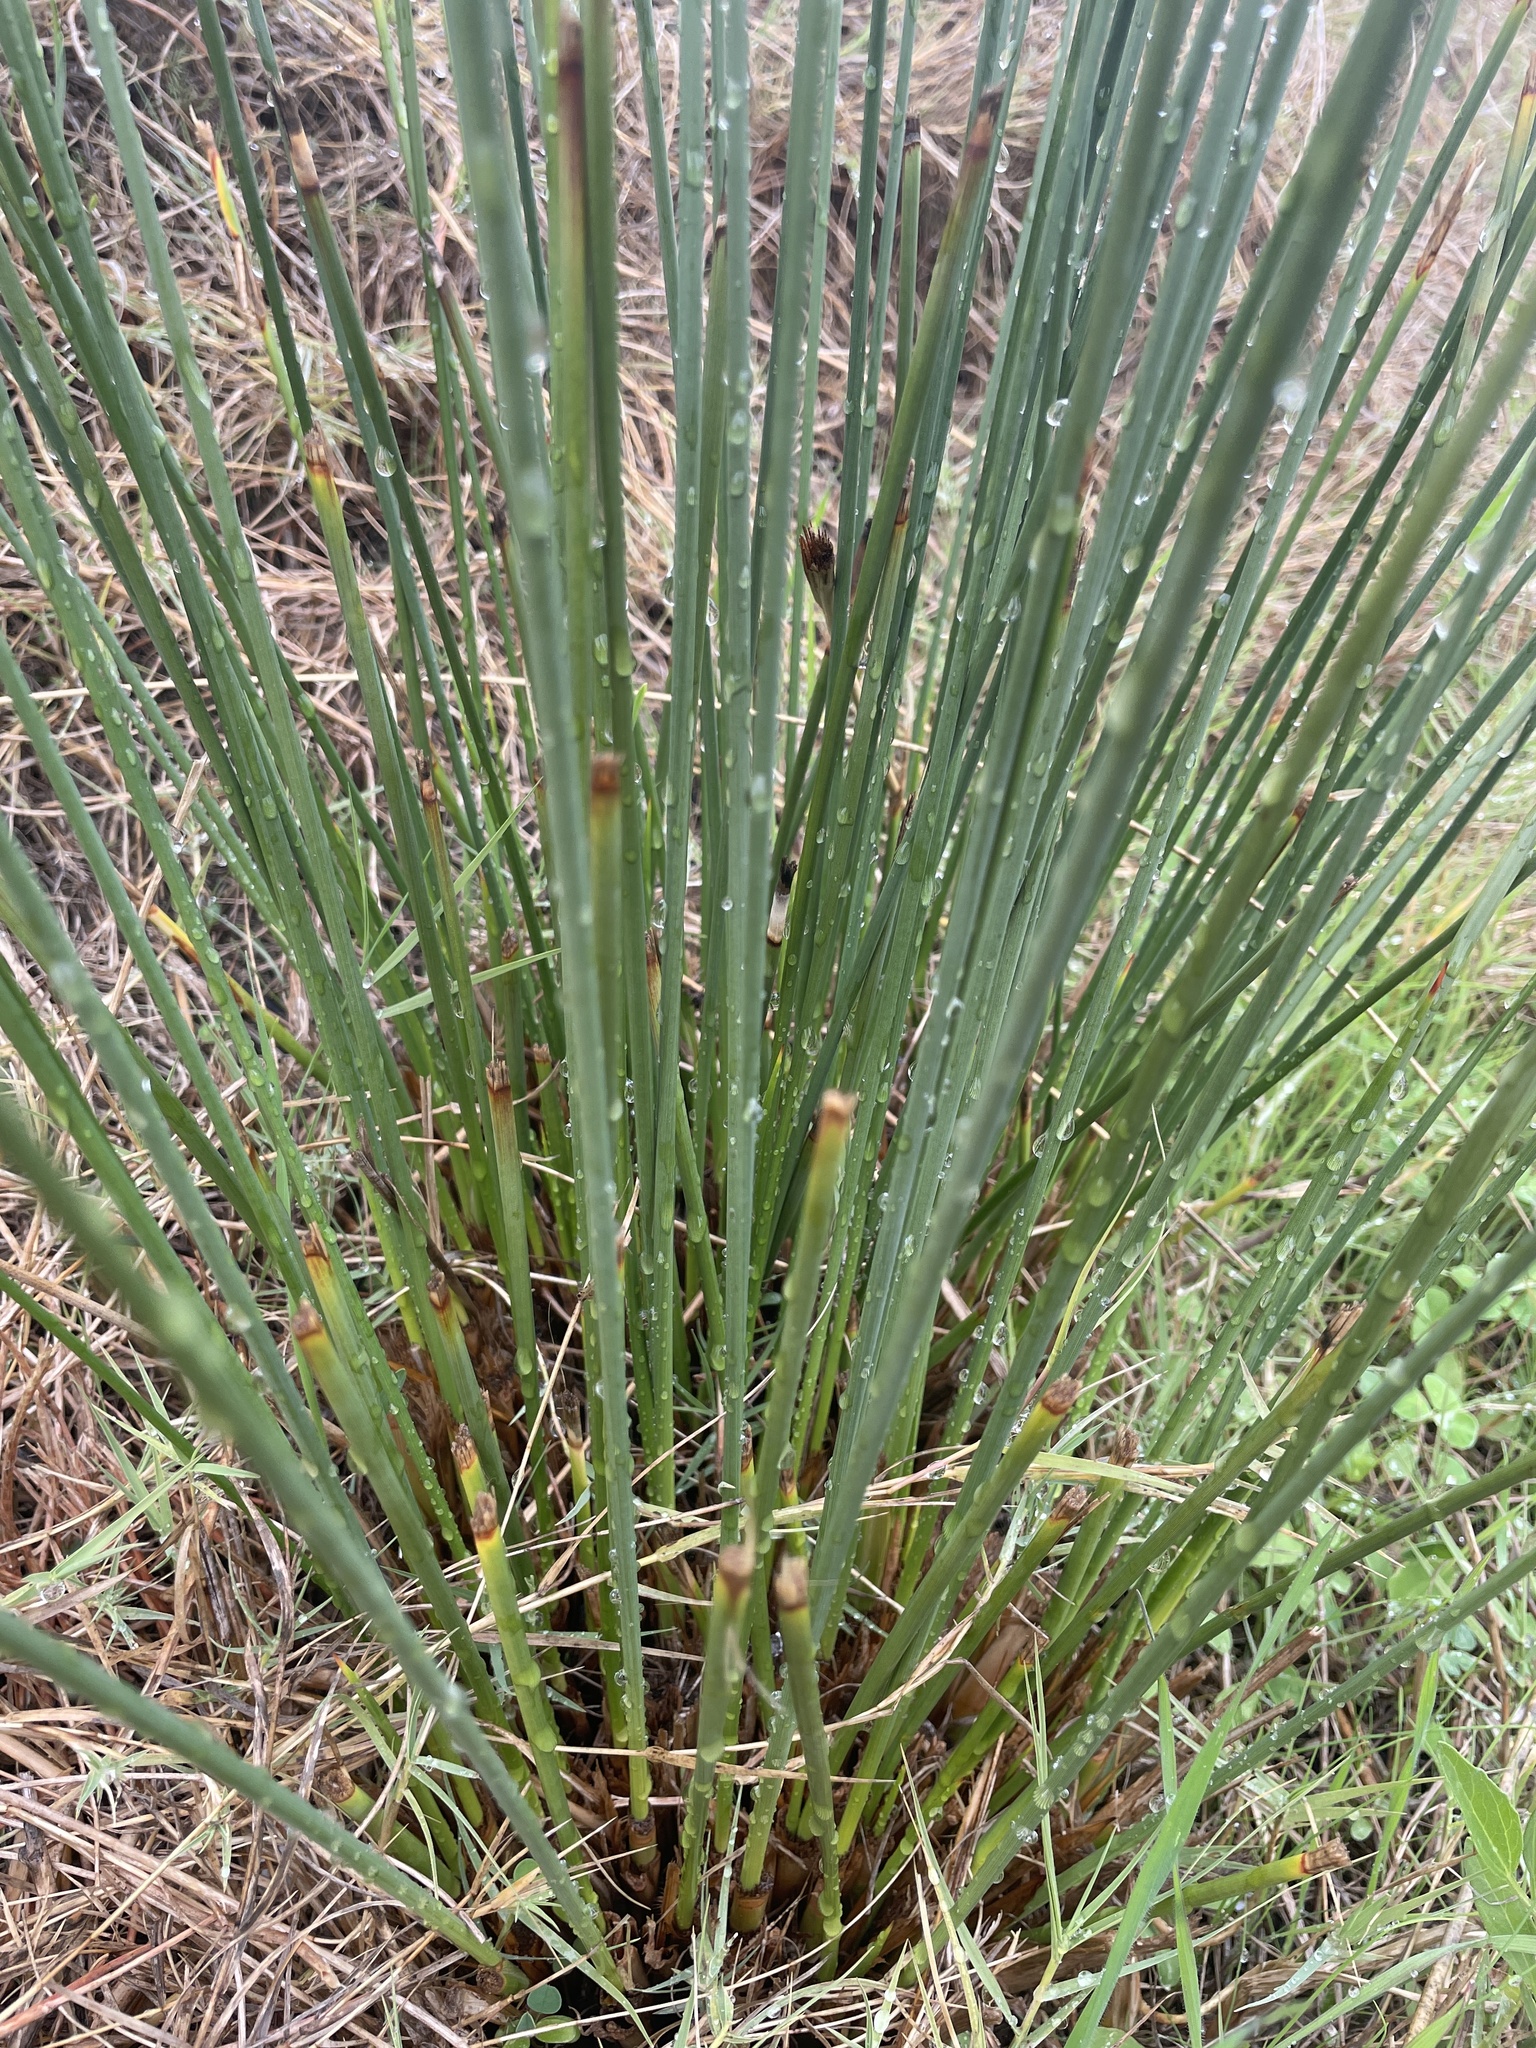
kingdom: Plantae
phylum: Tracheophyta
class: Liliopsida
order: Poales
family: Juncaceae
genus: Juncus
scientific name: Juncus acutus
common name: Sharp rush
